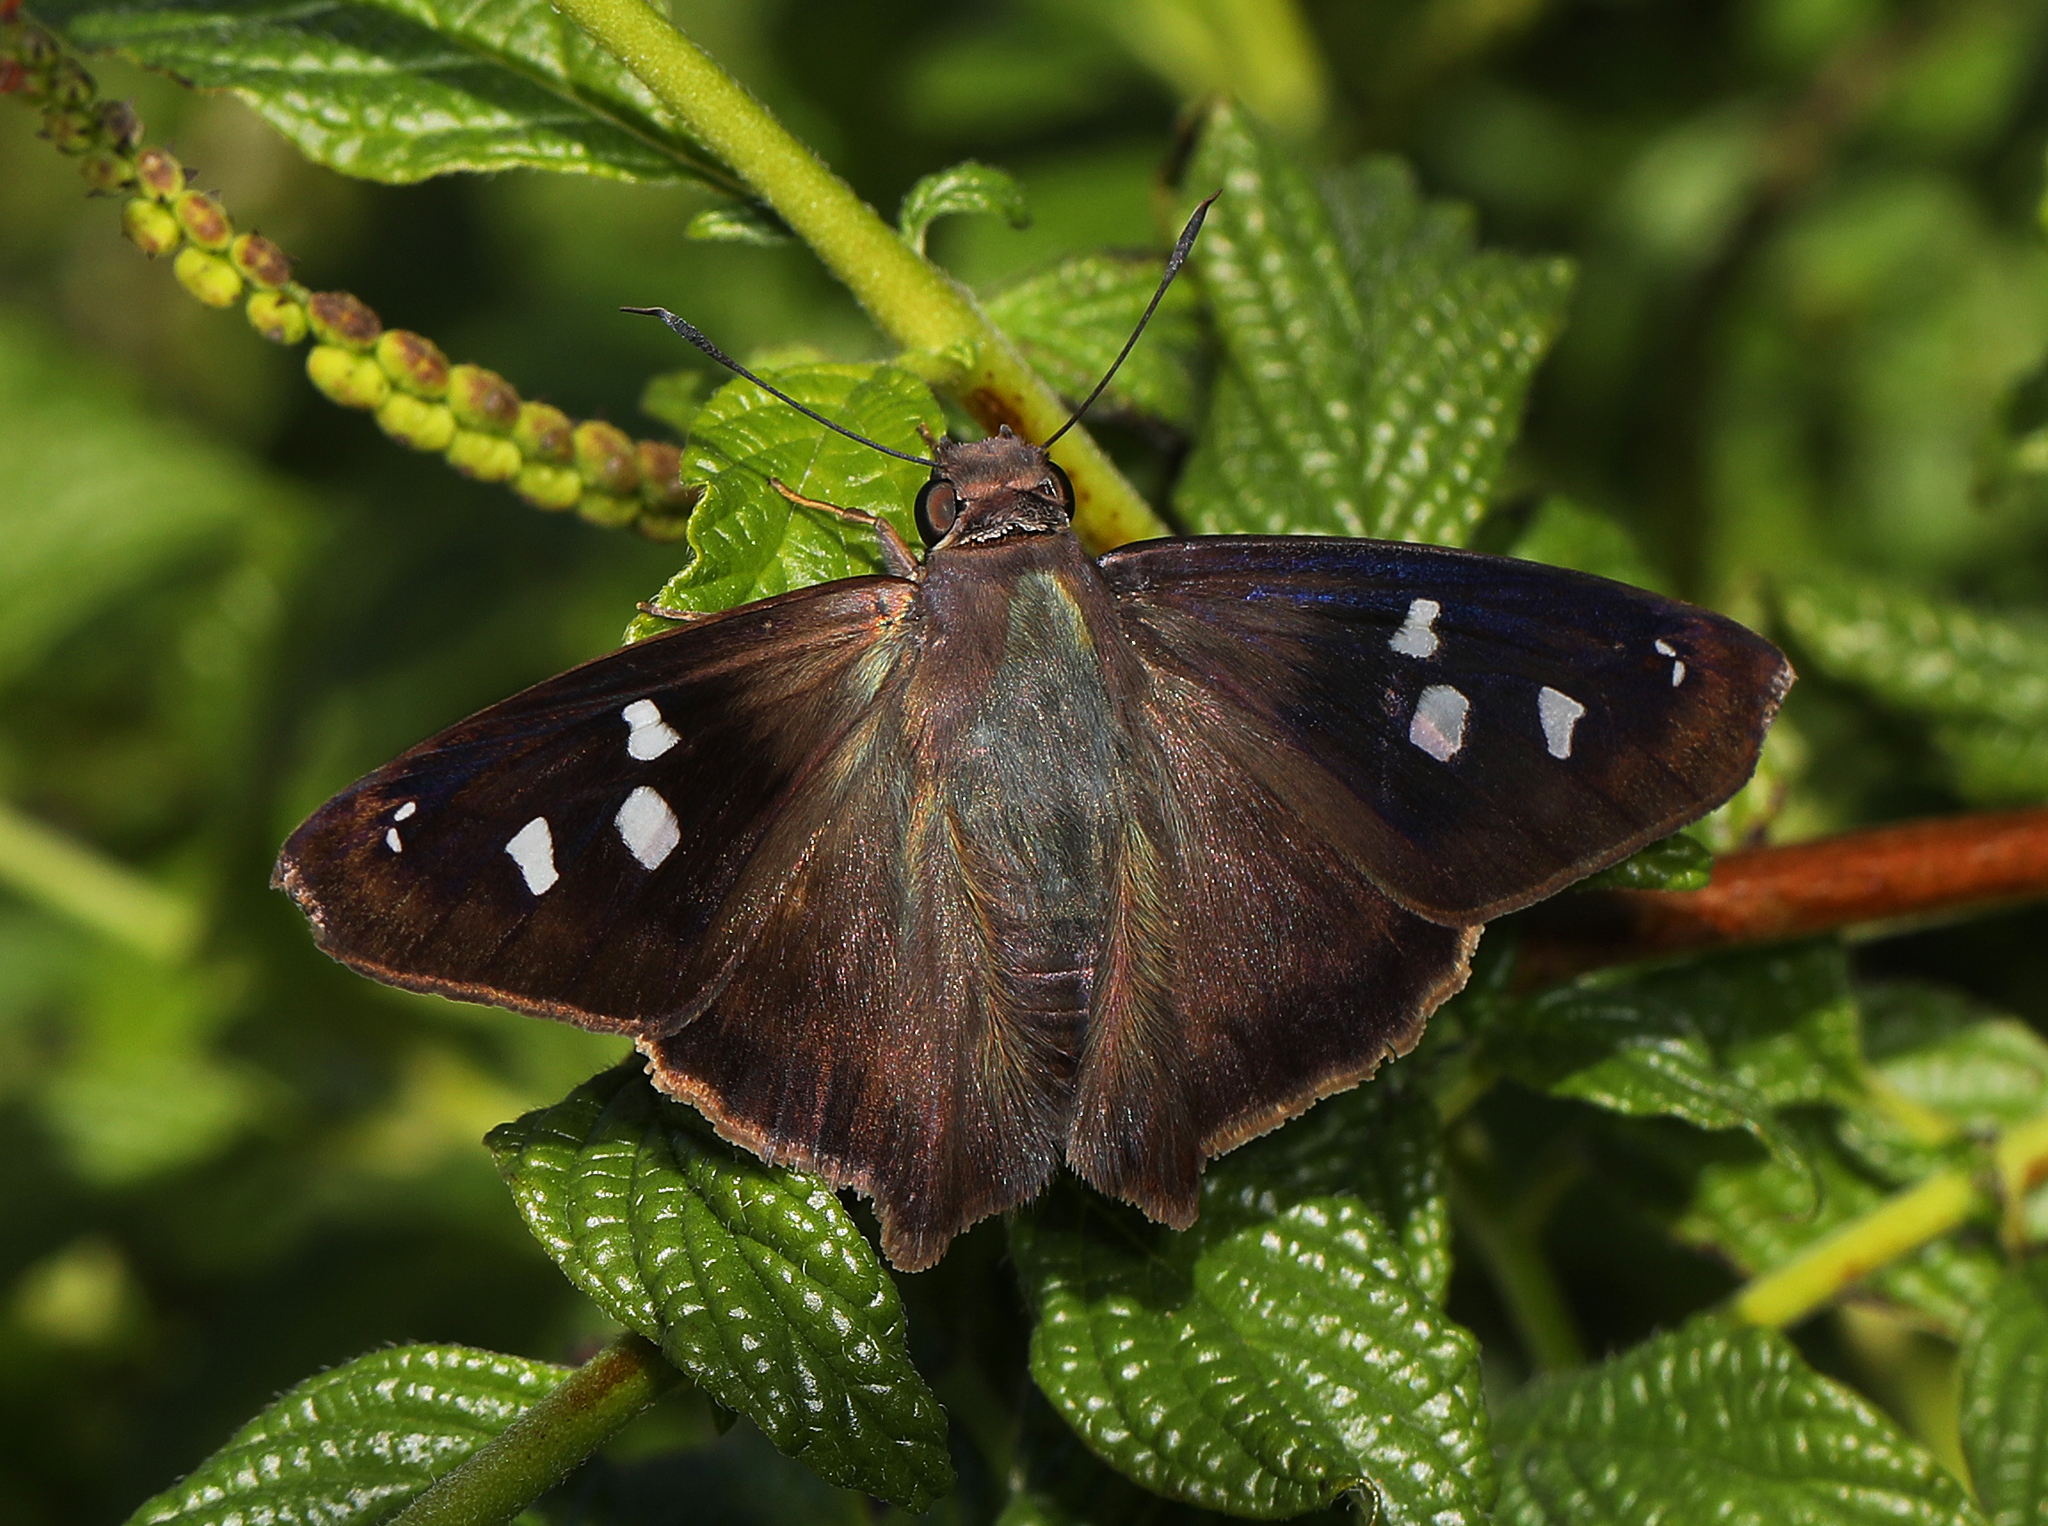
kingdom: Animalia
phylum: Arthropoda
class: Insecta
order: Lepidoptera
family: Hesperiidae
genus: Polygonus
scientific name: Polygonus leo
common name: Hammoch skipper
